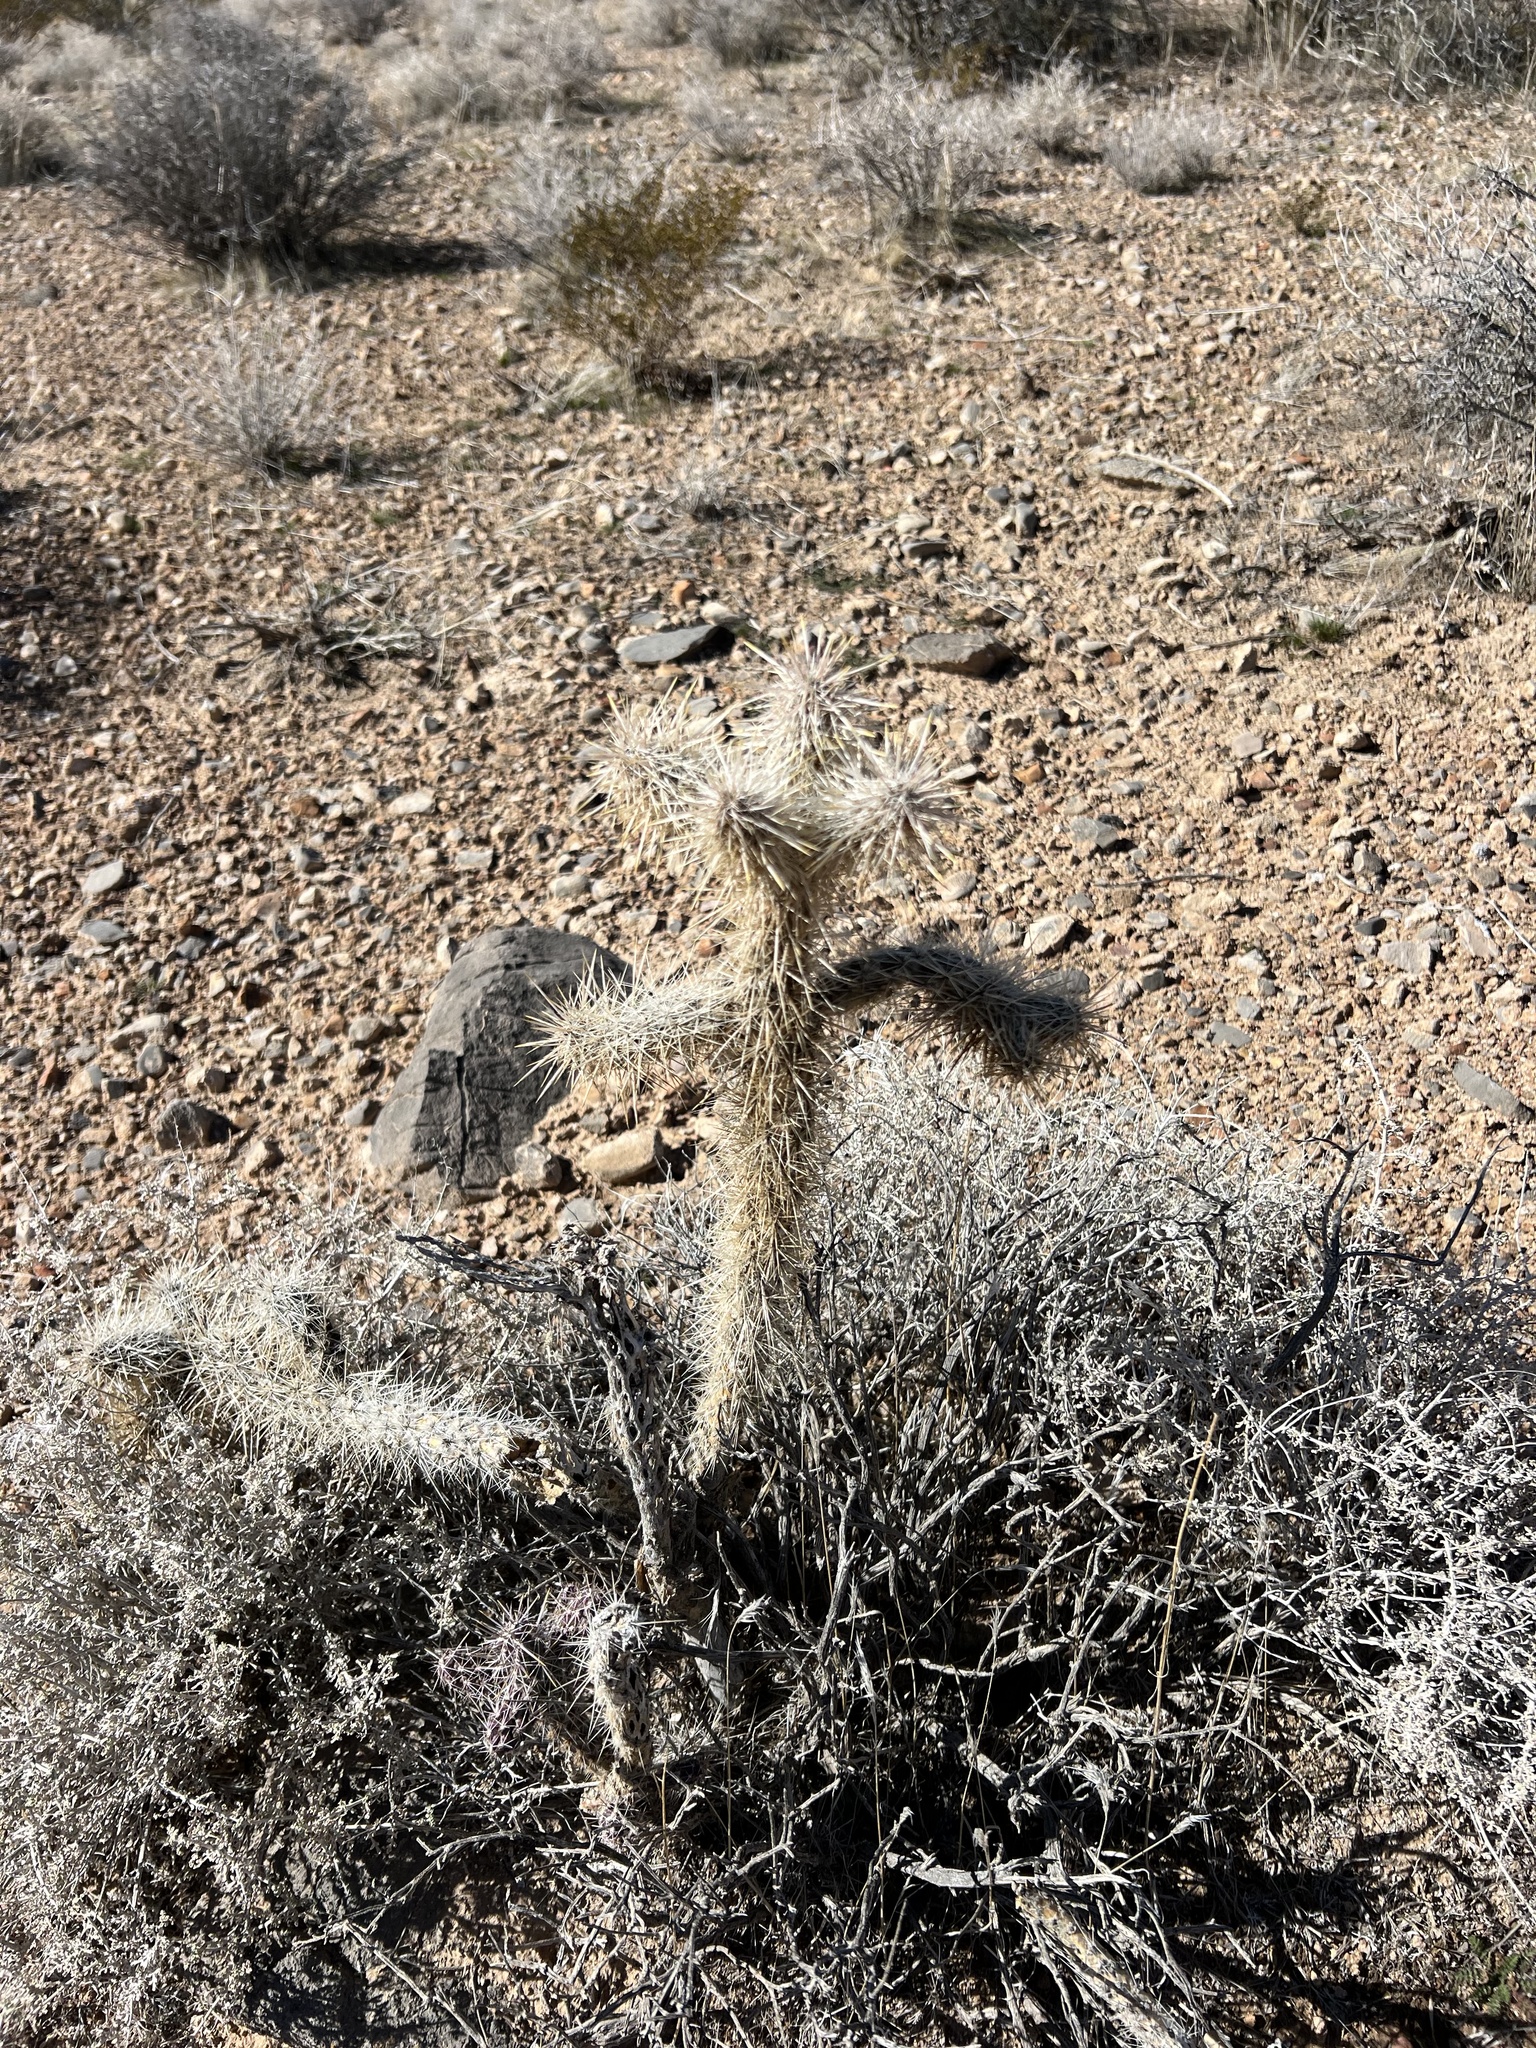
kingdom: Plantae
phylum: Tracheophyta
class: Magnoliopsida
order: Caryophyllales
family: Cactaceae
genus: Cylindropuntia
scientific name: Cylindropuntia echinocarpa
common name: Ground cholla
